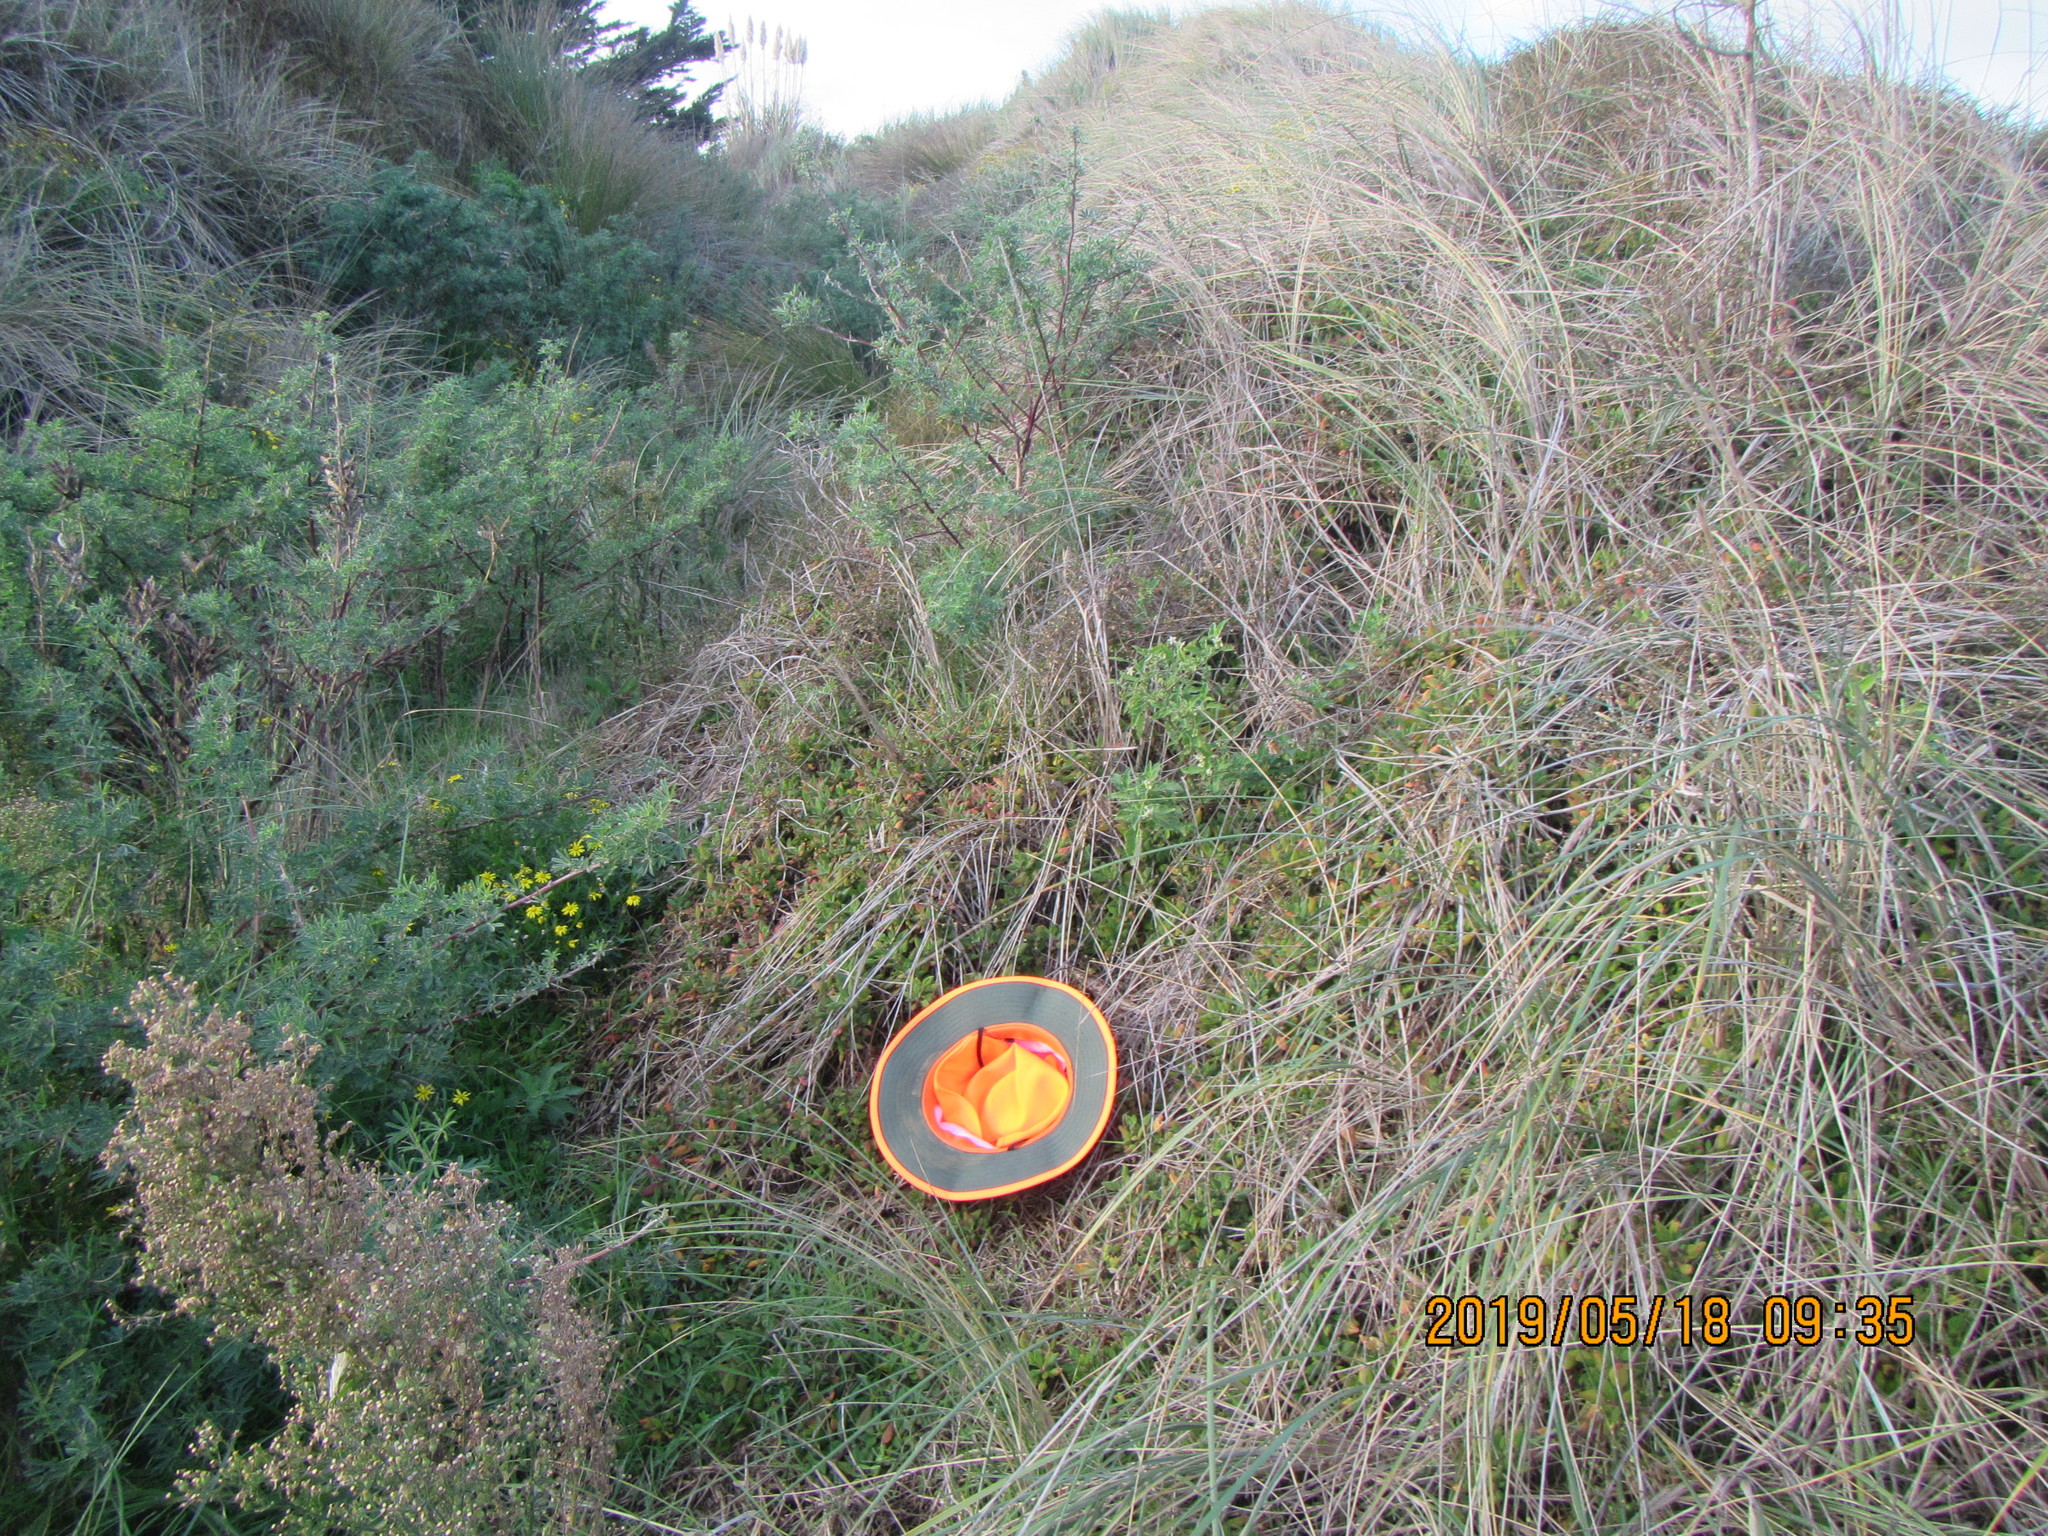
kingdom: Plantae
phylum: Tracheophyta
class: Magnoliopsida
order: Caryophyllales
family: Polygonaceae
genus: Muehlenbeckia
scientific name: Muehlenbeckia complexa
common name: Wireplant
